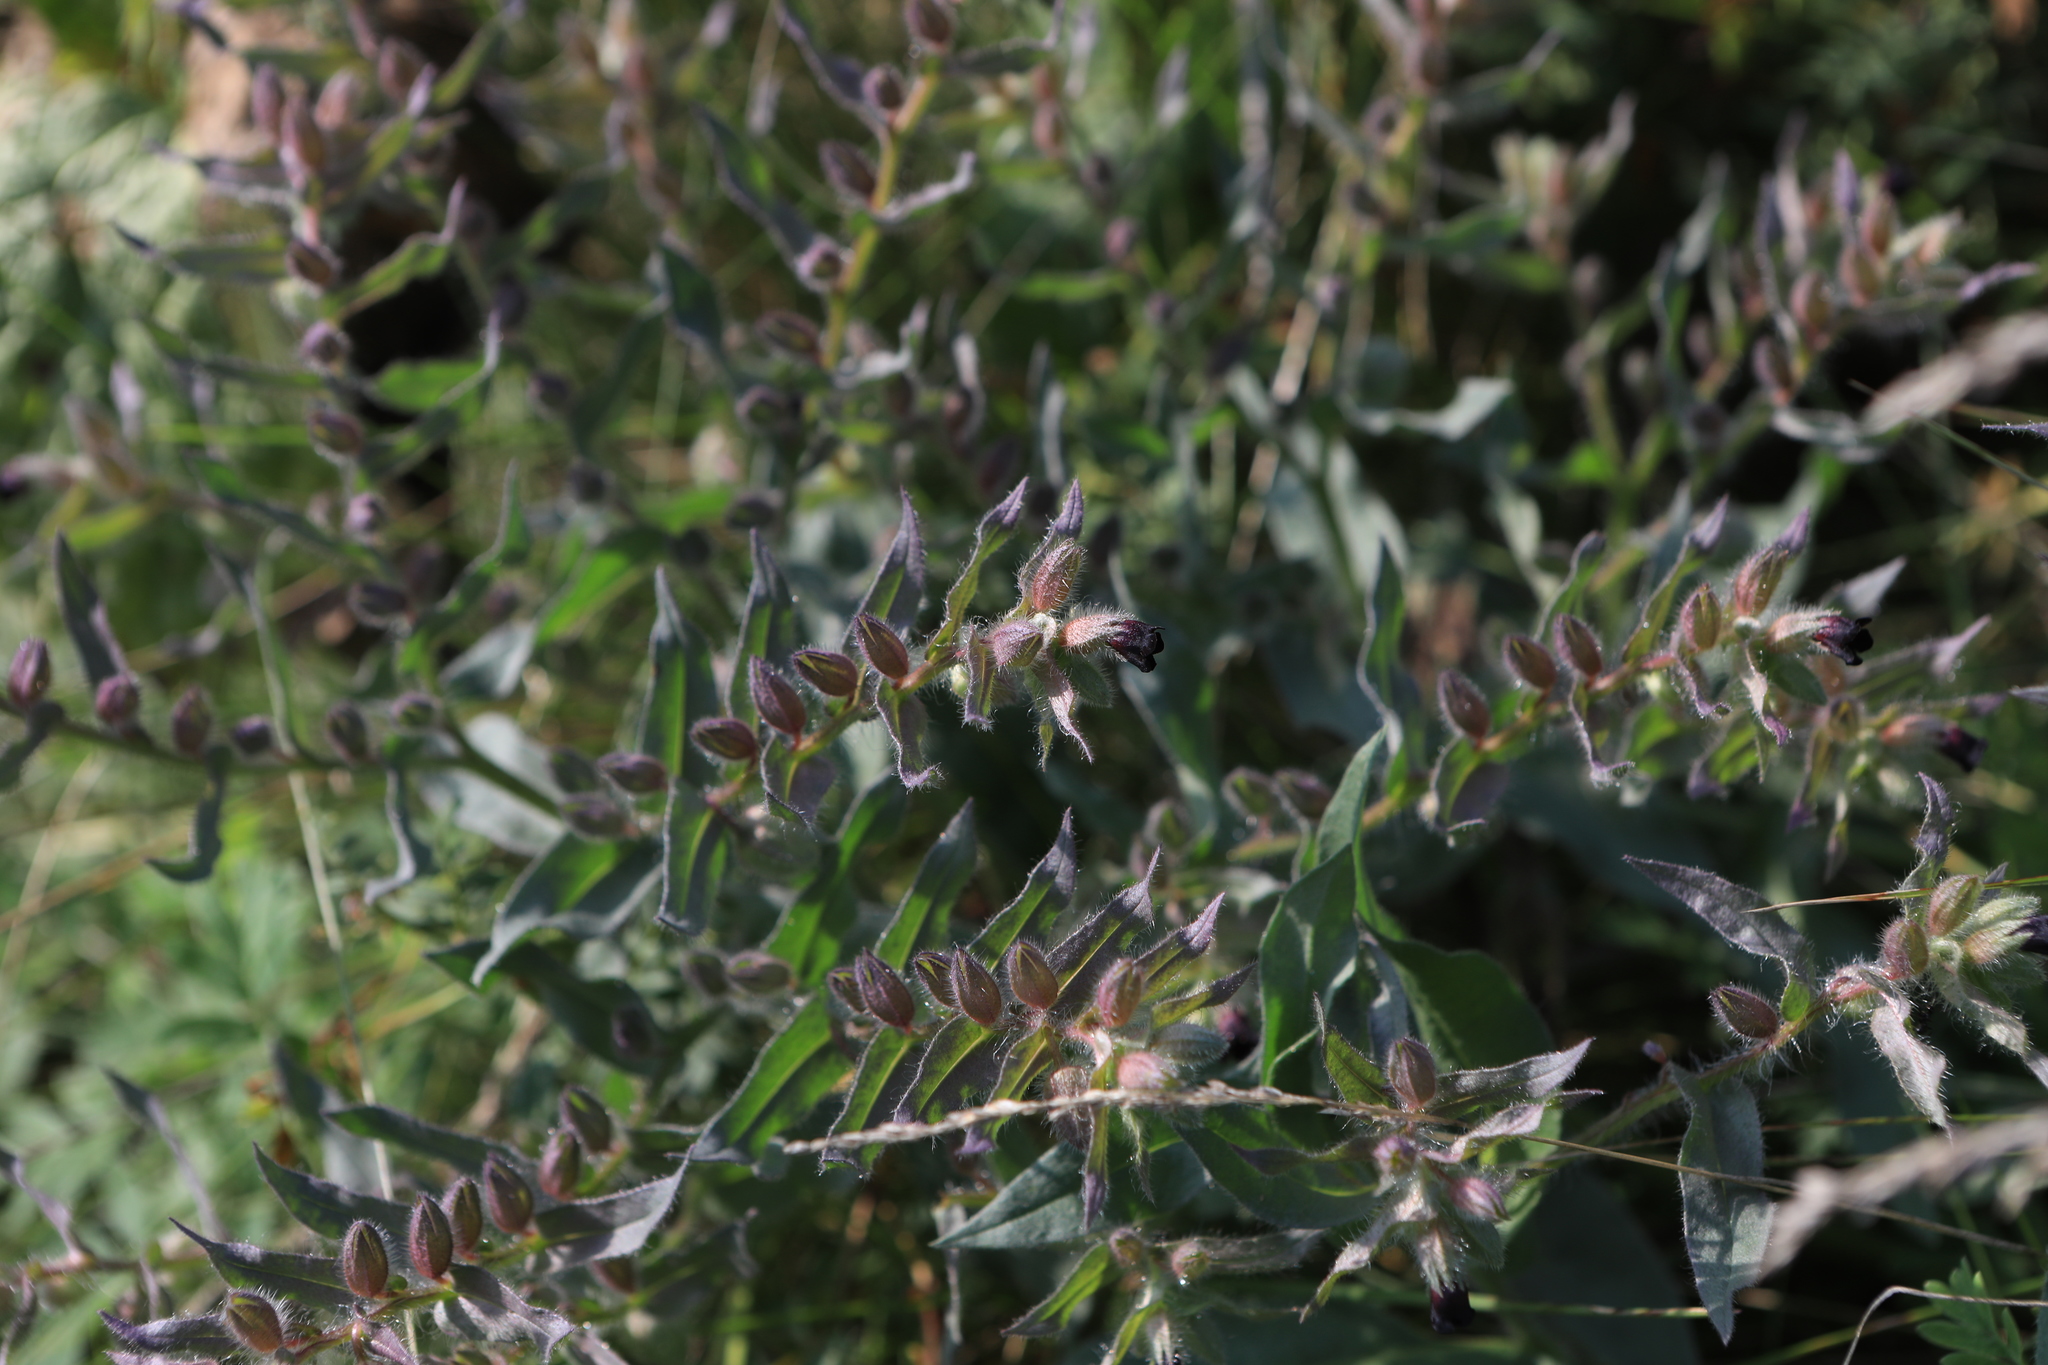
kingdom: Plantae
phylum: Tracheophyta
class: Magnoliopsida
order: Boraginales
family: Boraginaceae
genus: Nonea
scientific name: Nonea pulla
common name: Brown nonea
